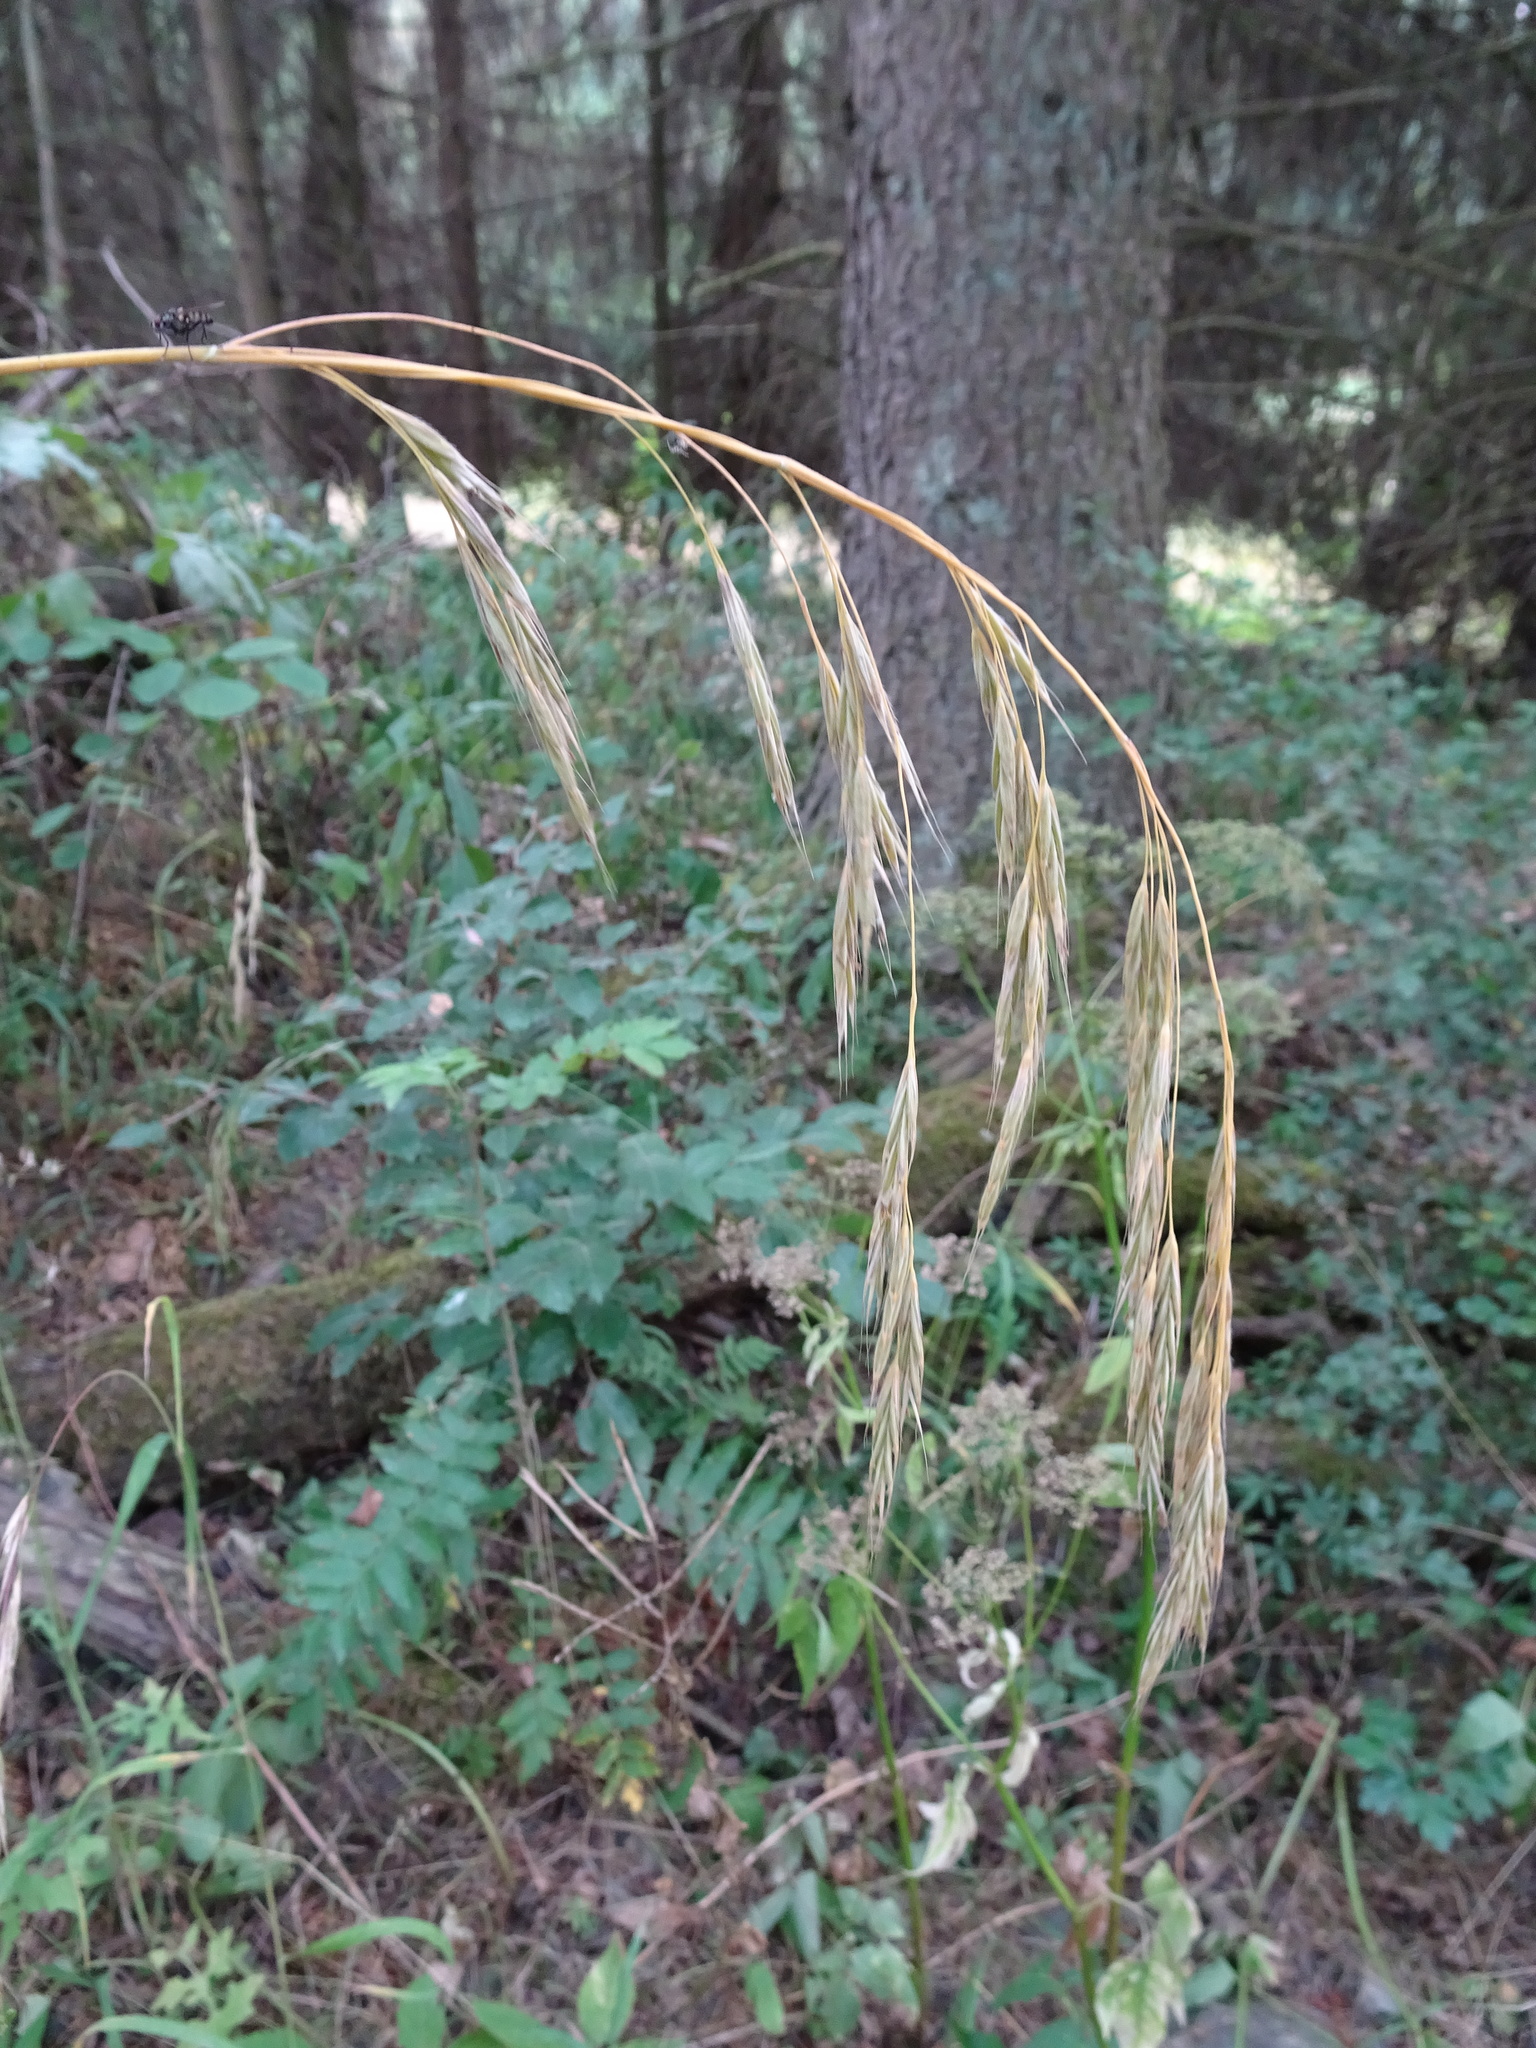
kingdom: Plantae
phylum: Tracheophyta
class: Liliopsida
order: Poales
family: Poaceae
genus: Lolium
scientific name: Lolium giganteum
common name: Giant fescue
